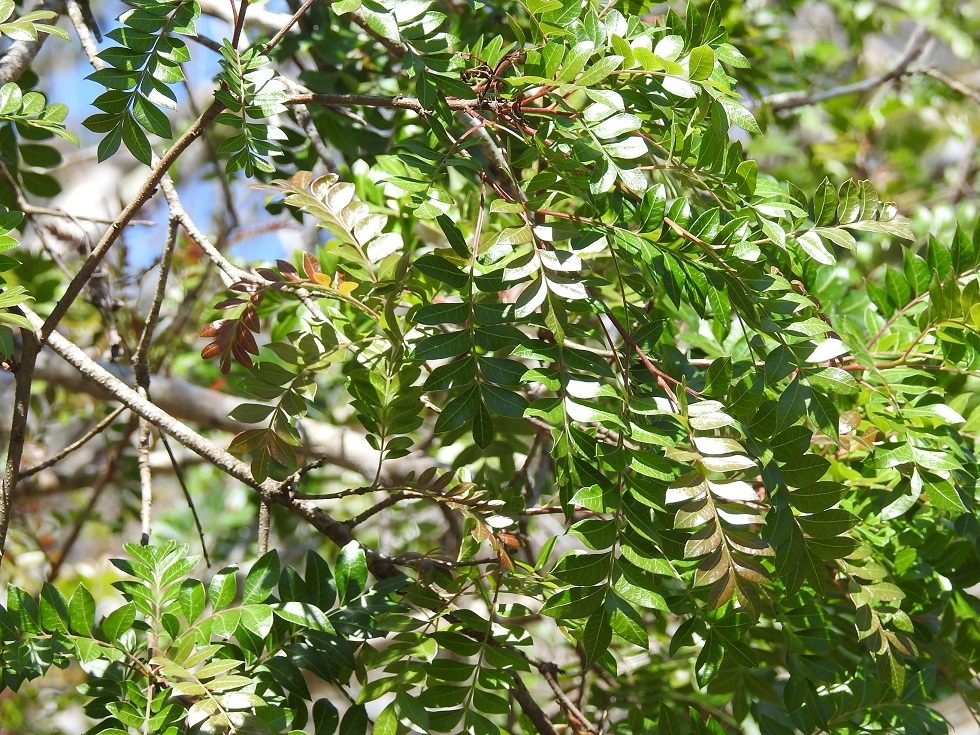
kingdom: Plantae
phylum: Tracheophyta
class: Magnoliopsida
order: Sapindales
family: Anacardiaceae
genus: Pistacia
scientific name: Pistacia mexicana
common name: Mexican pistachio
